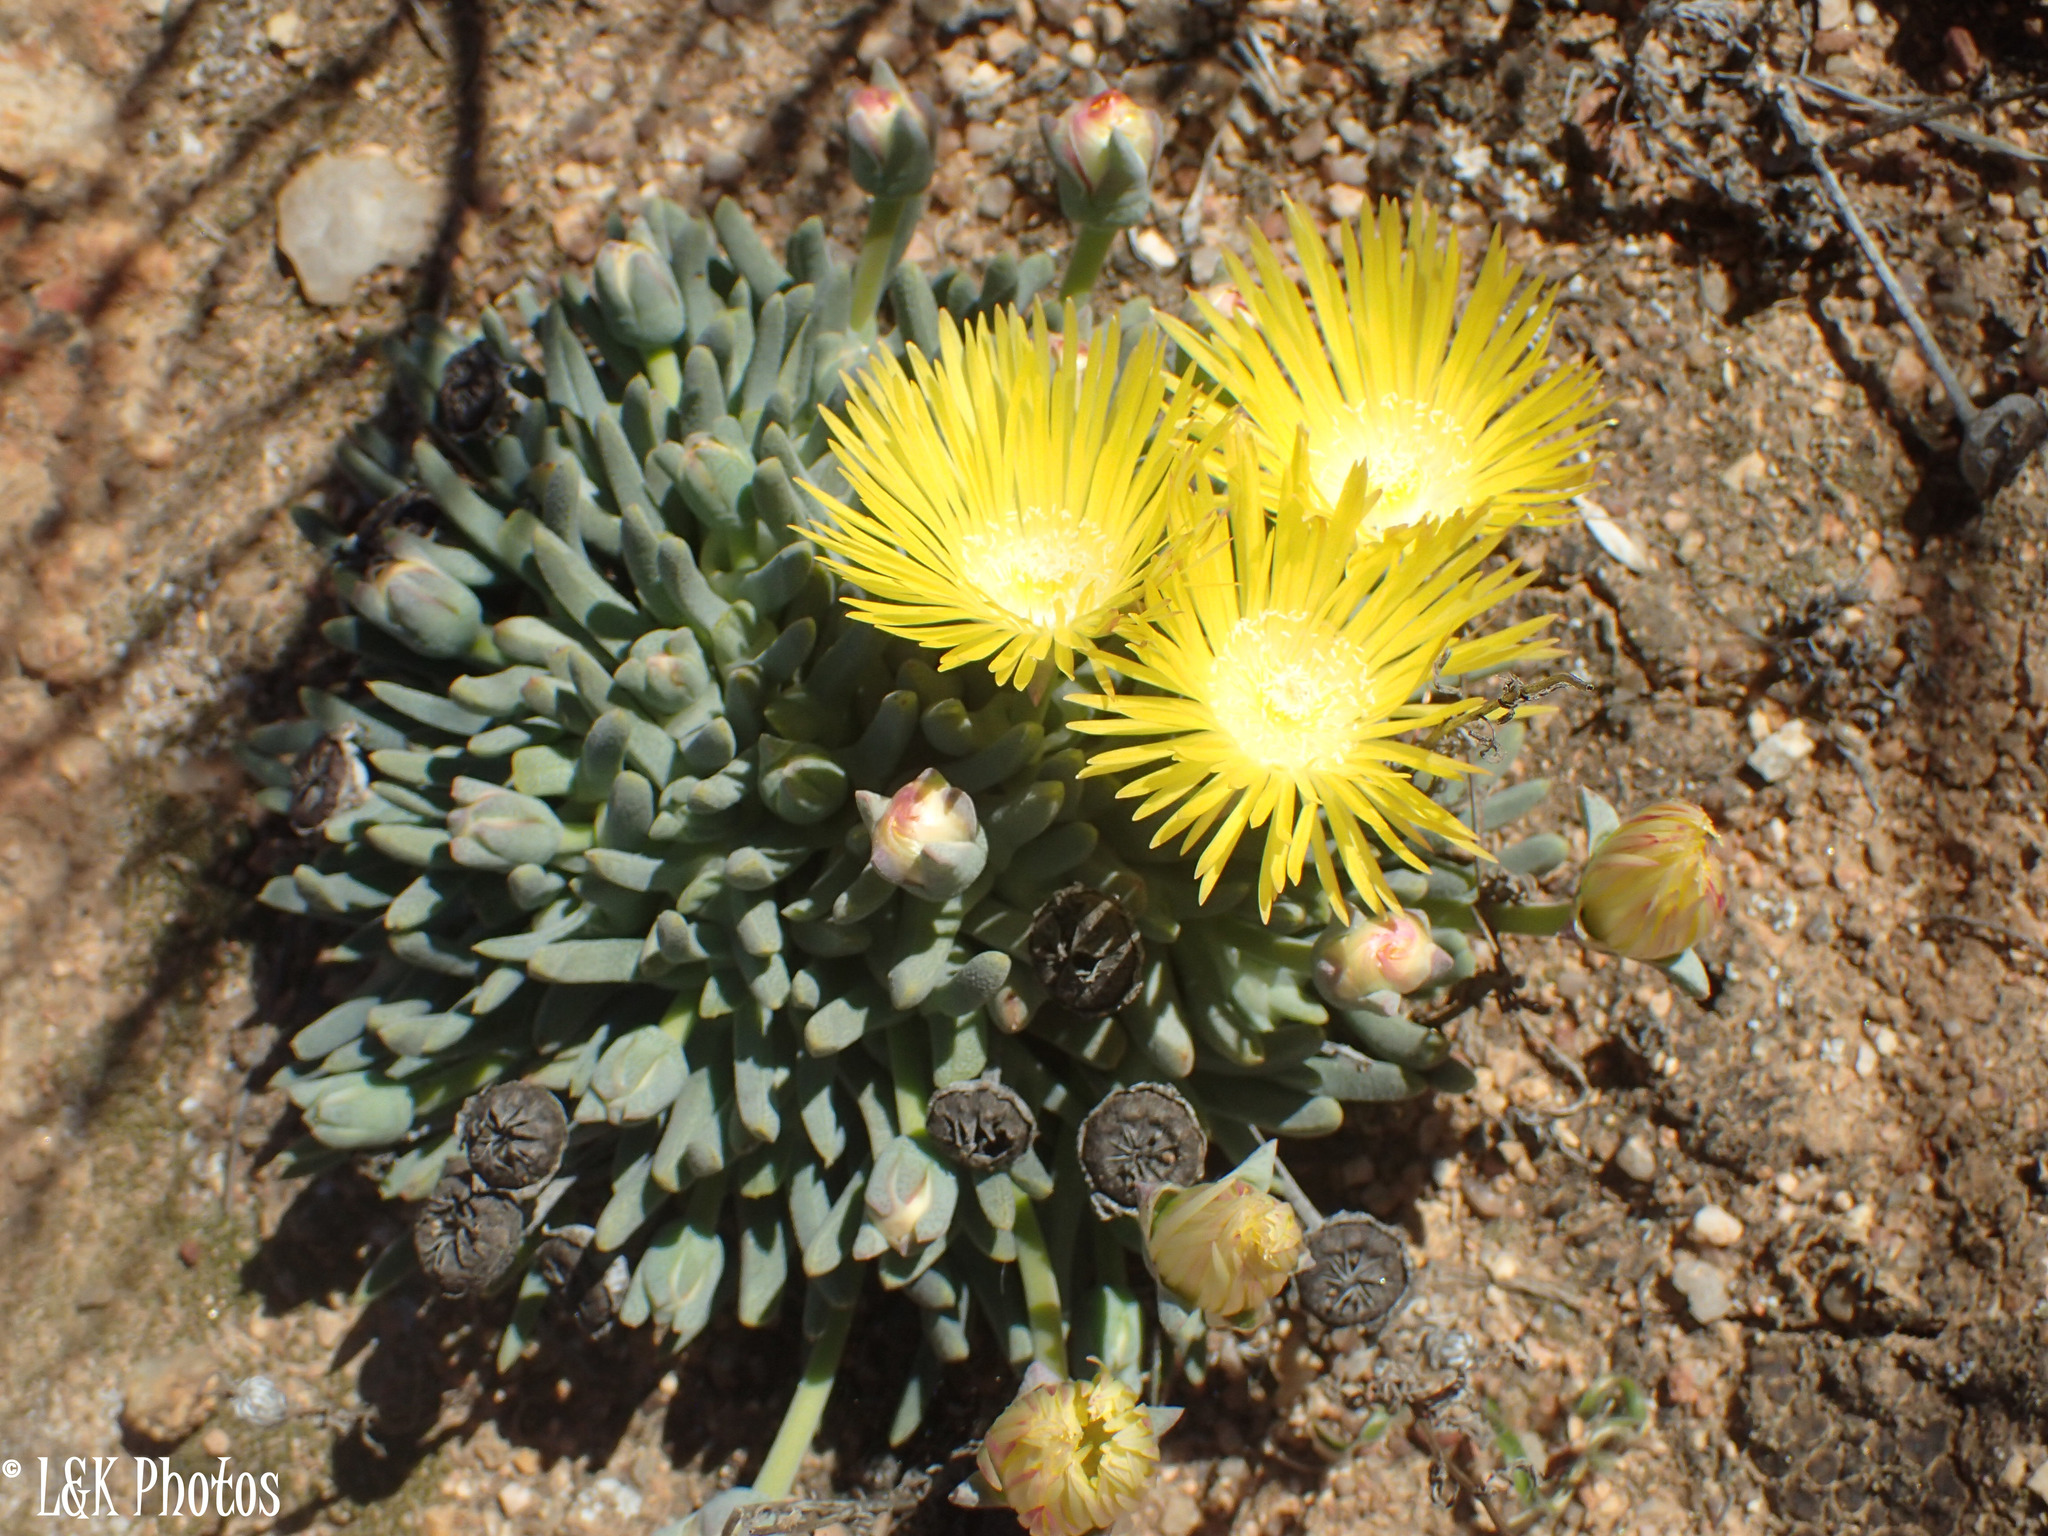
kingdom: Plantae
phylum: Tracheophyta
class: Magnoliopsida
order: Caryophyllales
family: Aizoaceae
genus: Cheiridopsis
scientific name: Cheiridopsis namaquensis
